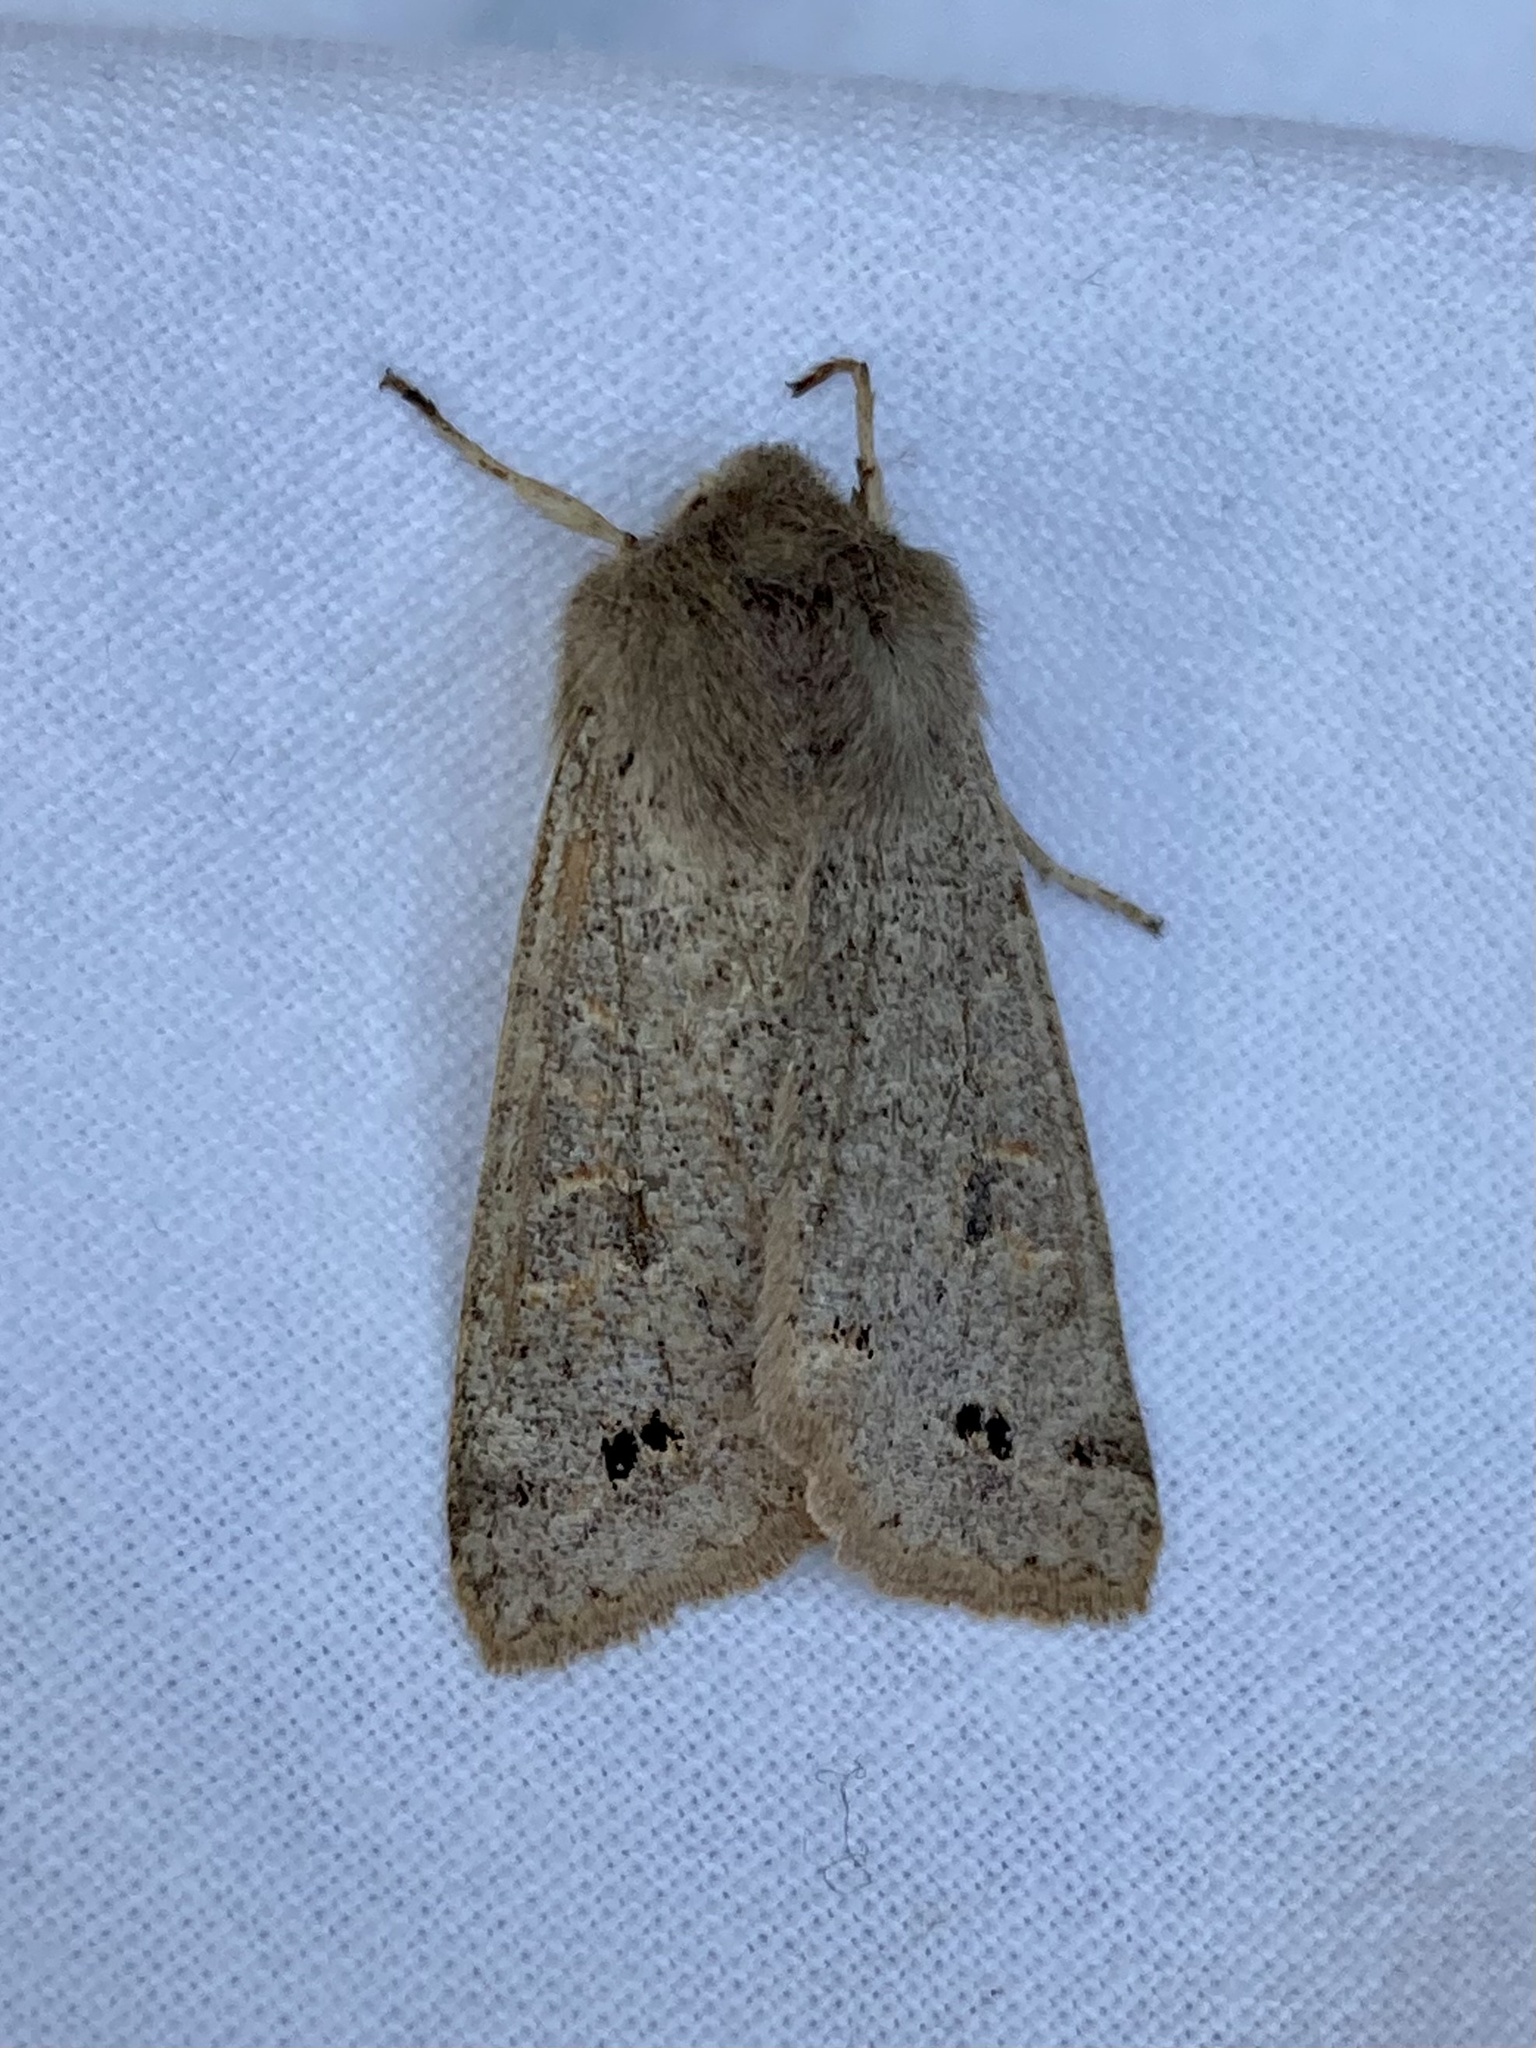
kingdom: Animalia
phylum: Arthropoda
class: Insecta
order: Lepidoptera
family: Noctuidae
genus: Anorthoa
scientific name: Anorthoa munda
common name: Twin-spotted quaker
